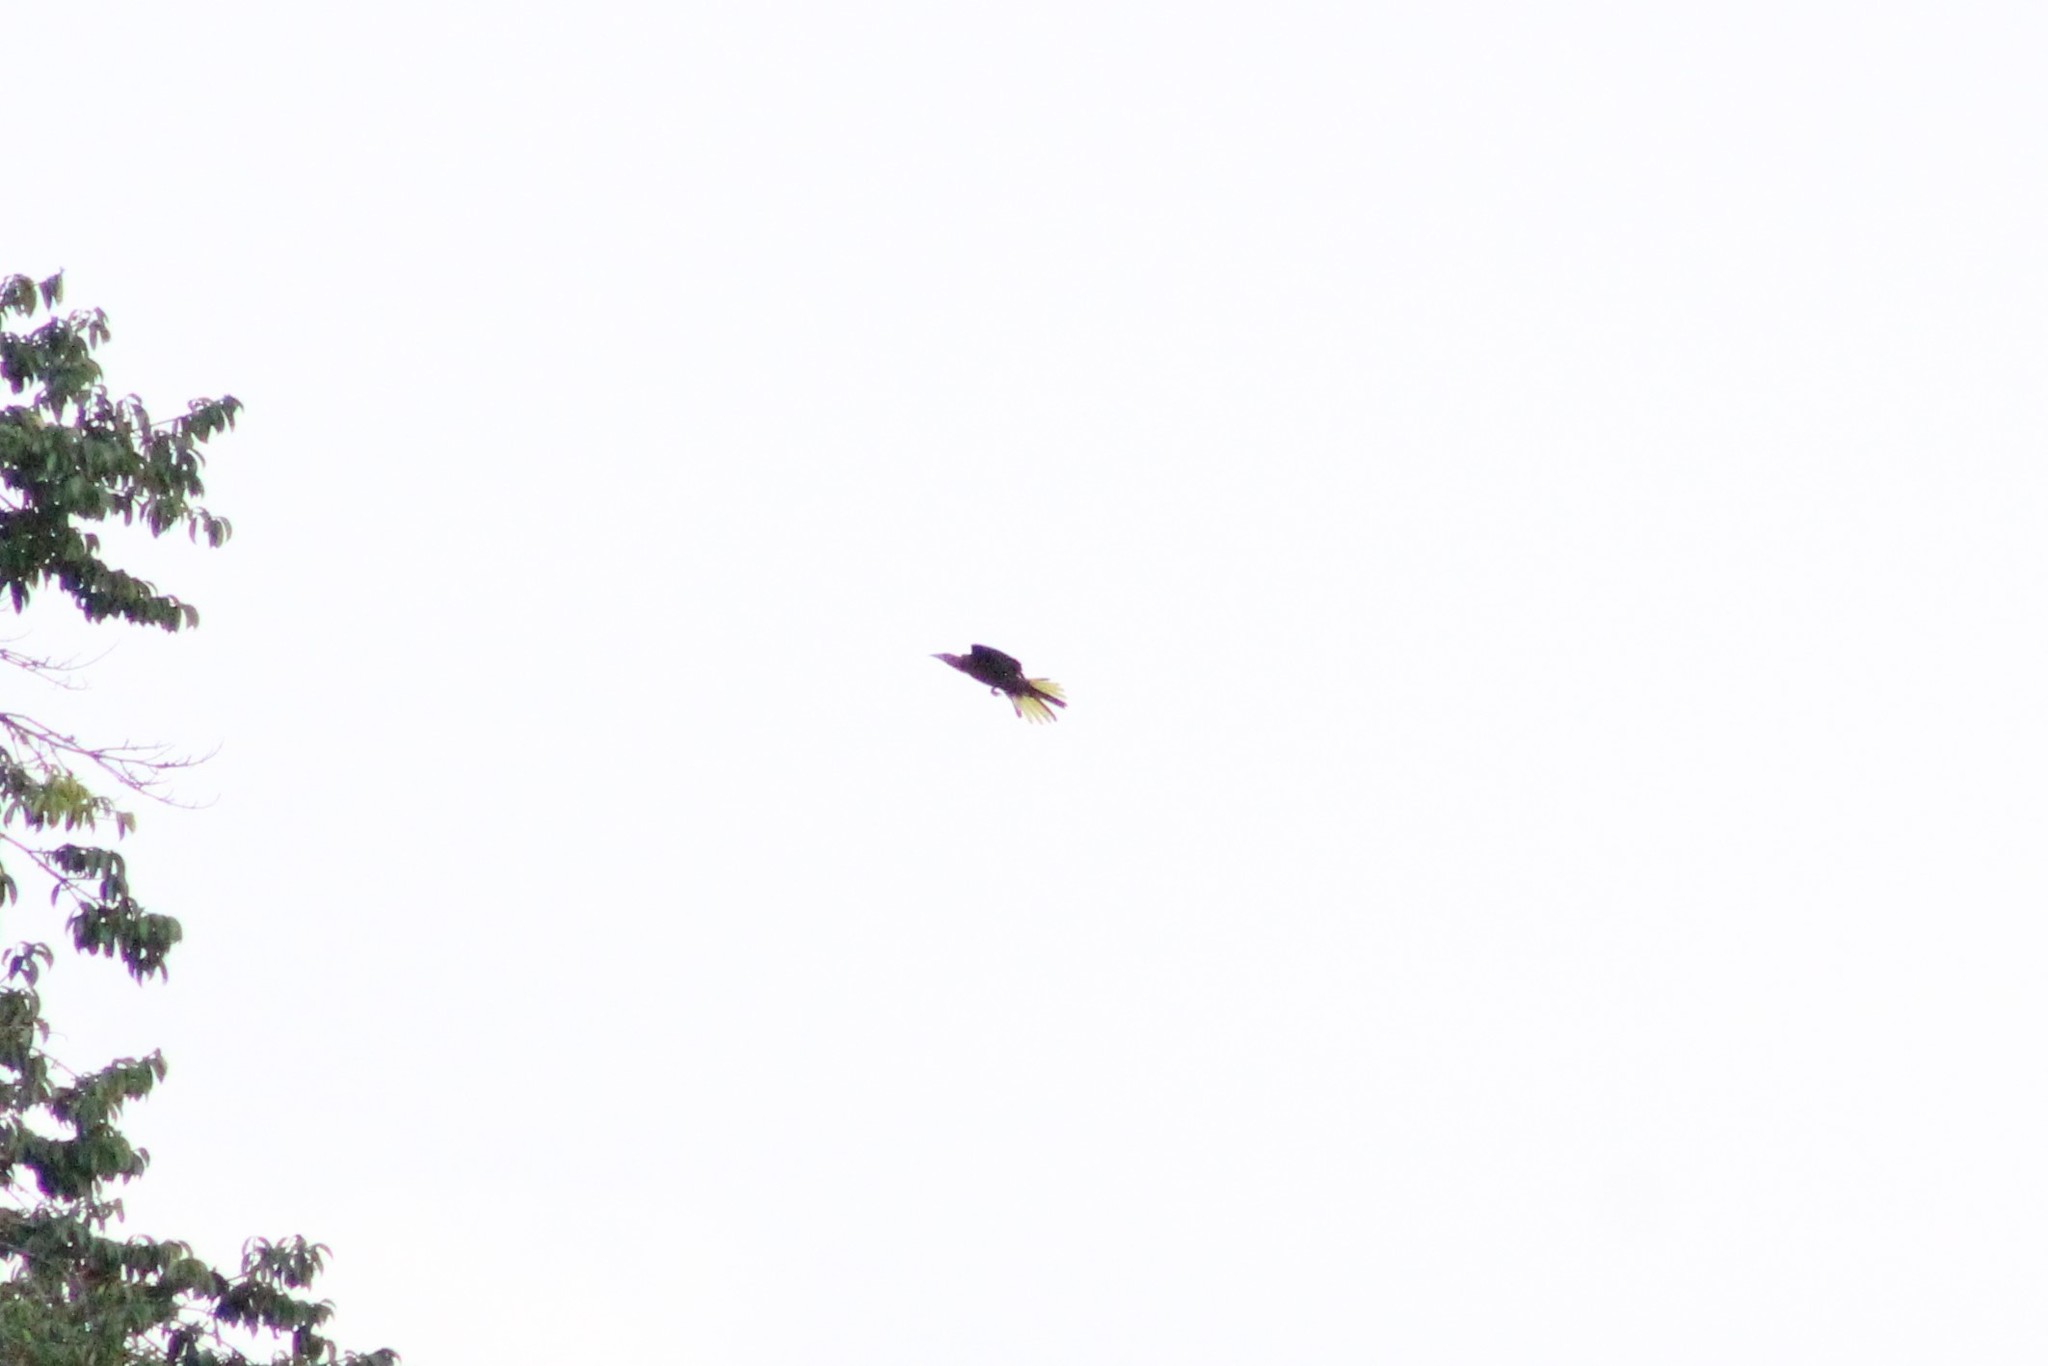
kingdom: Animalia
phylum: Chordata
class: Aves
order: Passeriformes
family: Icteridae
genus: Psarocolius
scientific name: Psarocolius angustifrons
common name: Russet-backed oropendola
